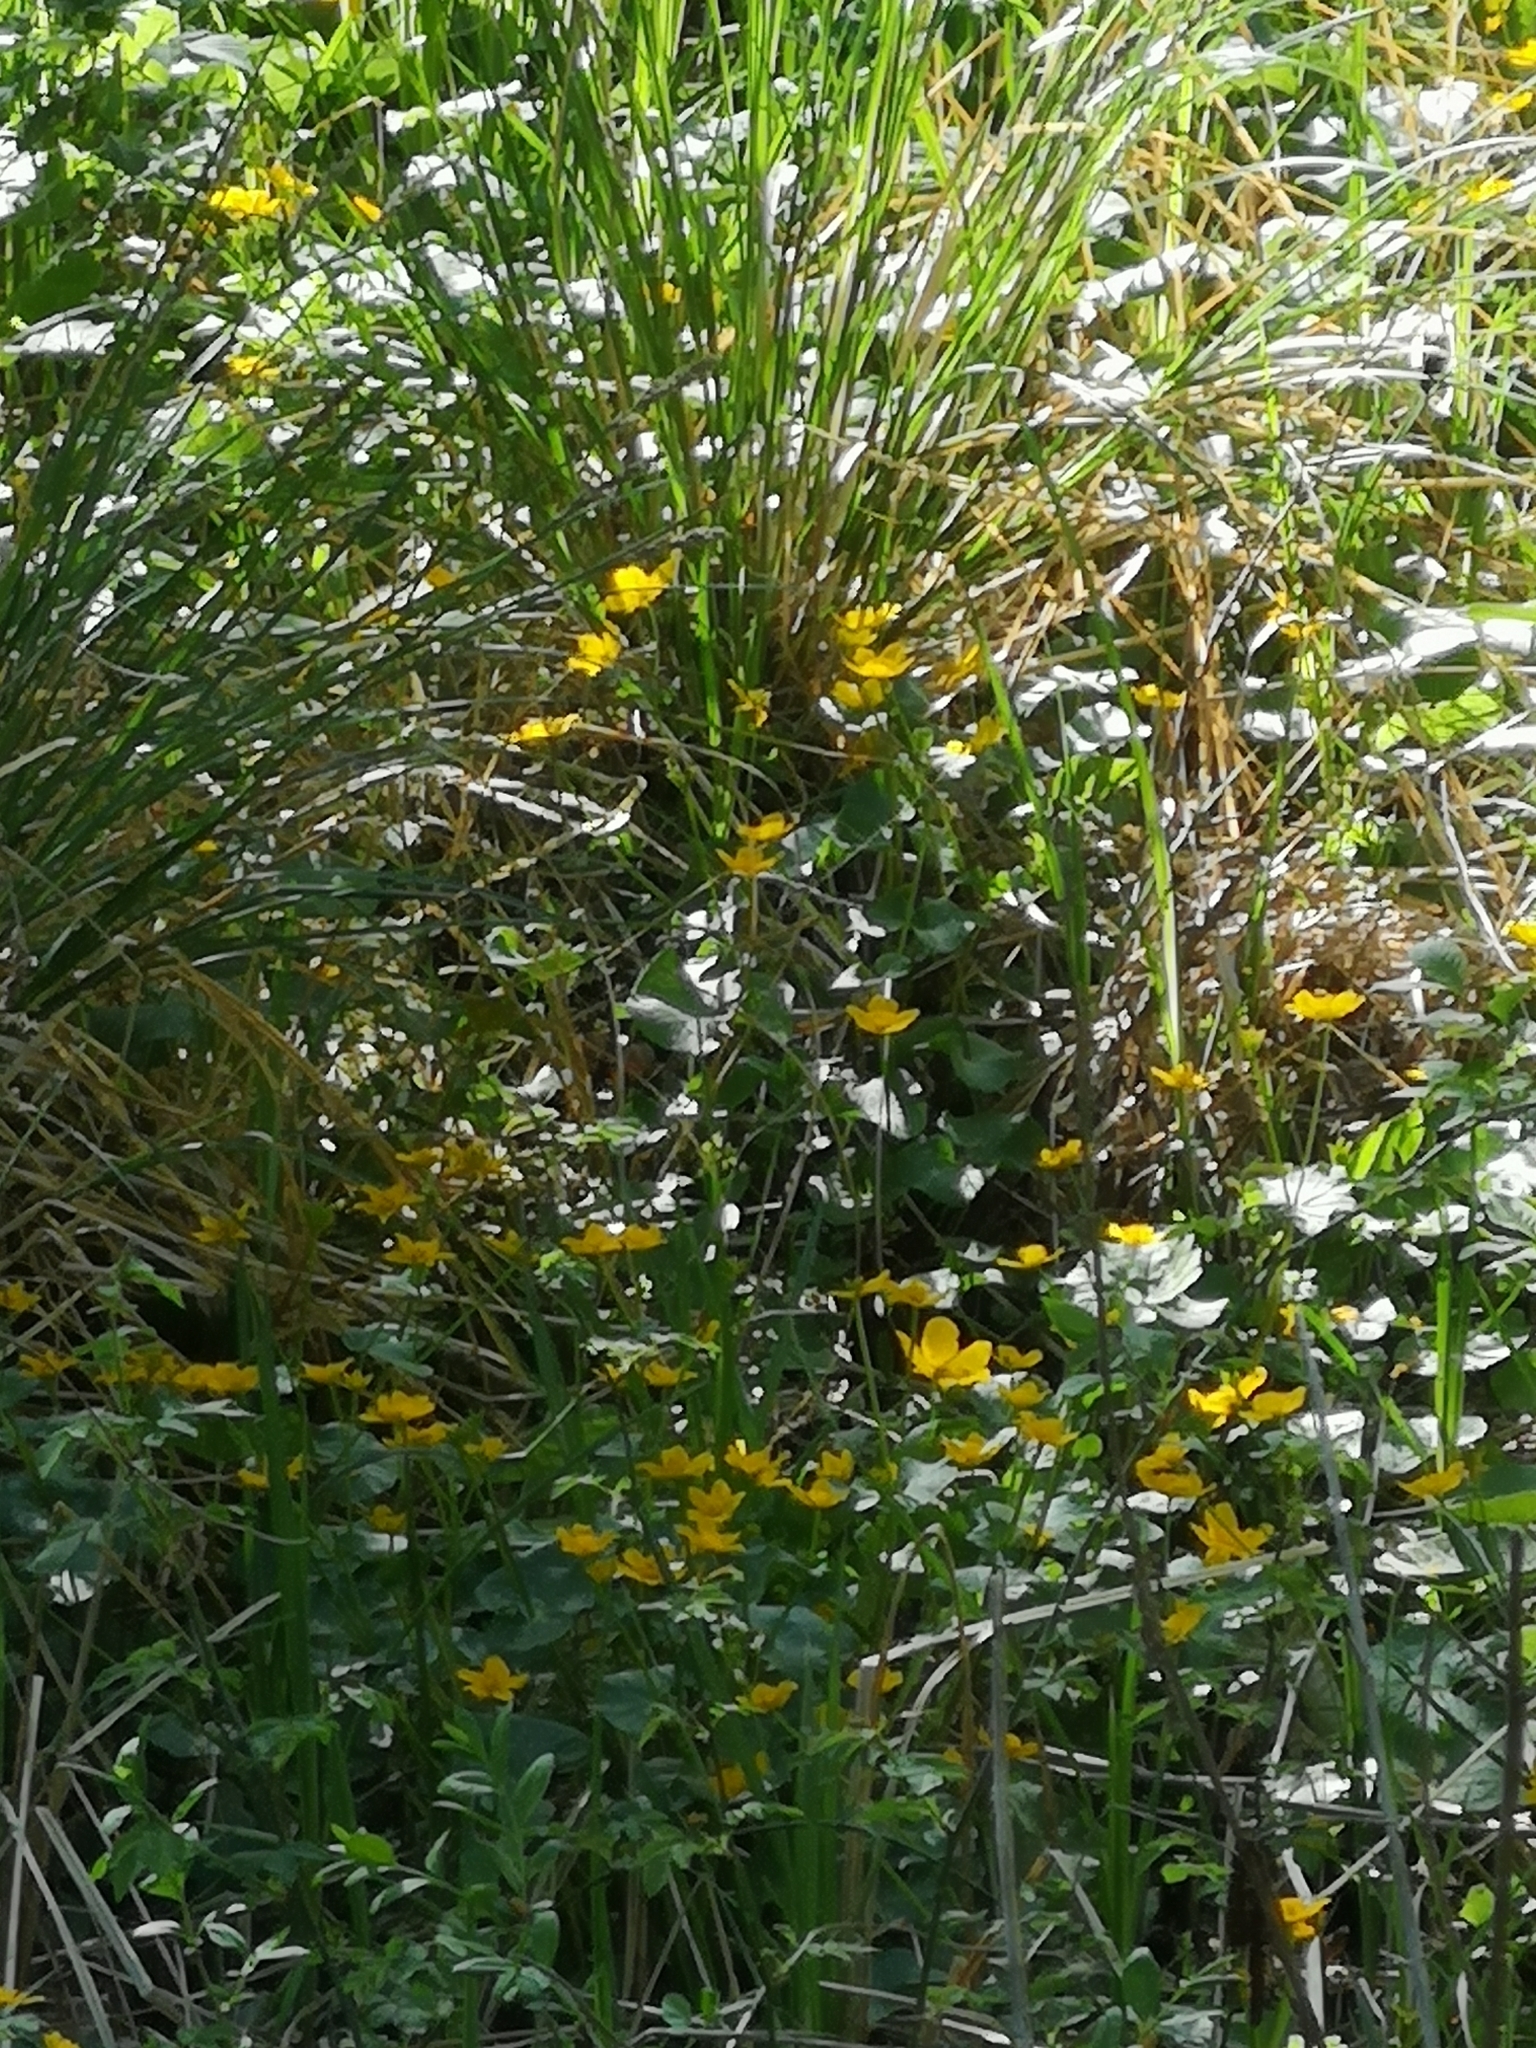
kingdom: Plantae
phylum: Tracheophyta
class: Magnoliopsida
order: Ranunculales
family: Ranunculaceae
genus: Caltha
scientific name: Caltha palustris
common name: Marsh marigold
